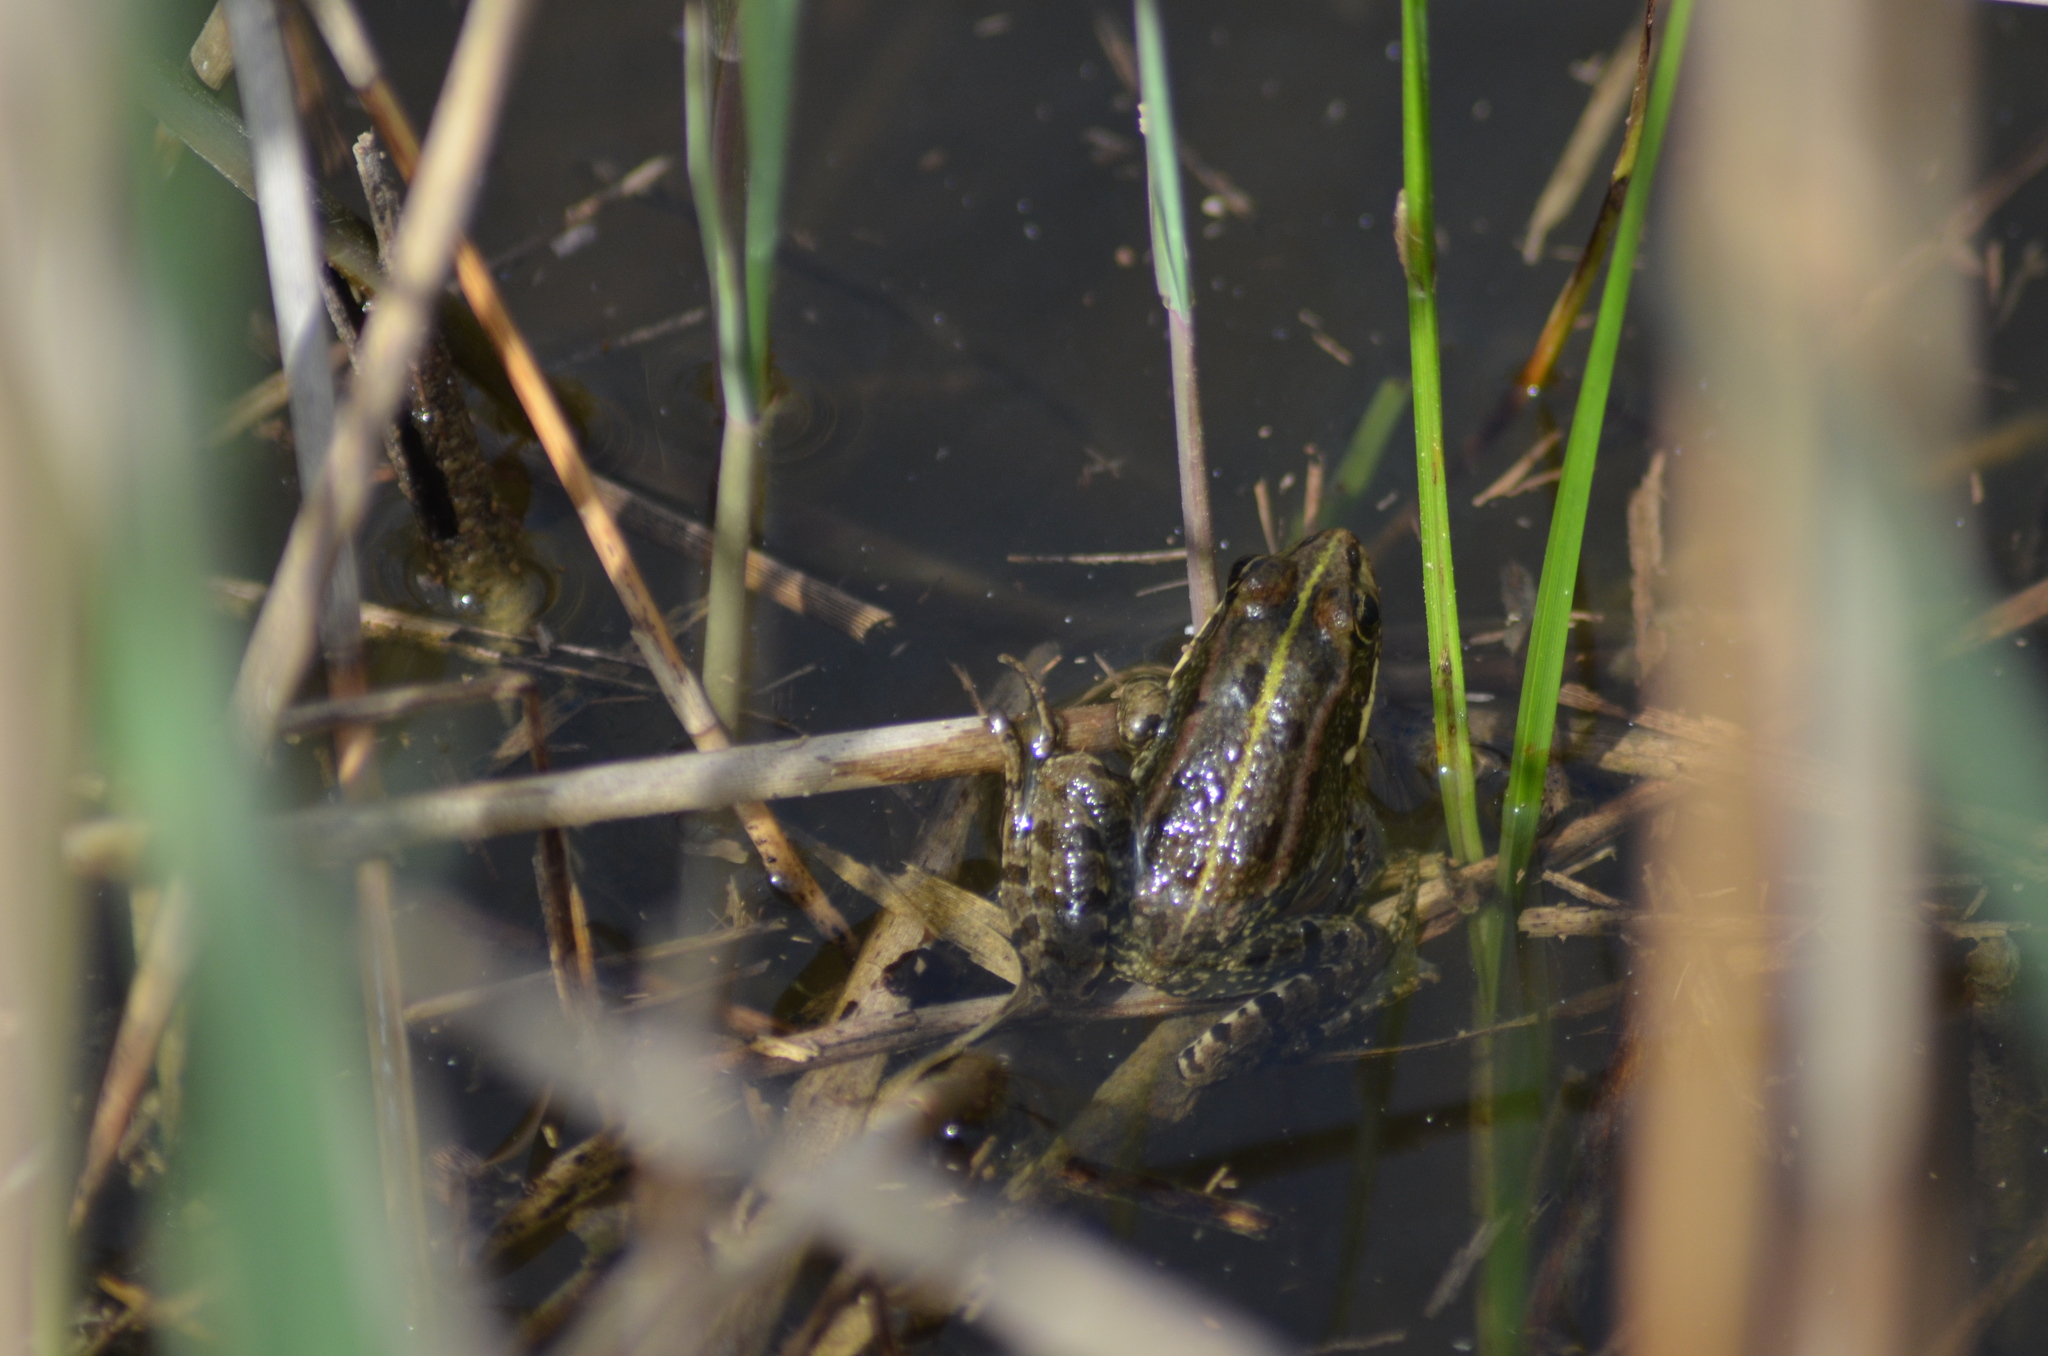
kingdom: Animalia
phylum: Chordata
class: Amphibia
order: Anura
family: Ranidae
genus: Pelophylax
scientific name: Pelophylax perezi
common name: Perez's frog
